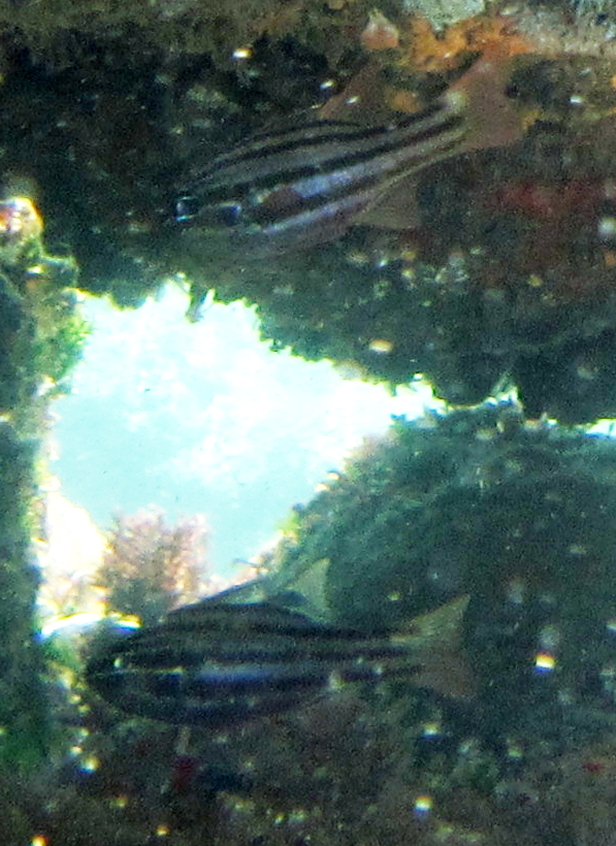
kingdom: Animalia
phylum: Chordata
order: Perciformes
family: Apogonidae
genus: Ostorhinchus
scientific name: Ostorhinchus taeniophorus
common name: Reef-flat cardinalfish
